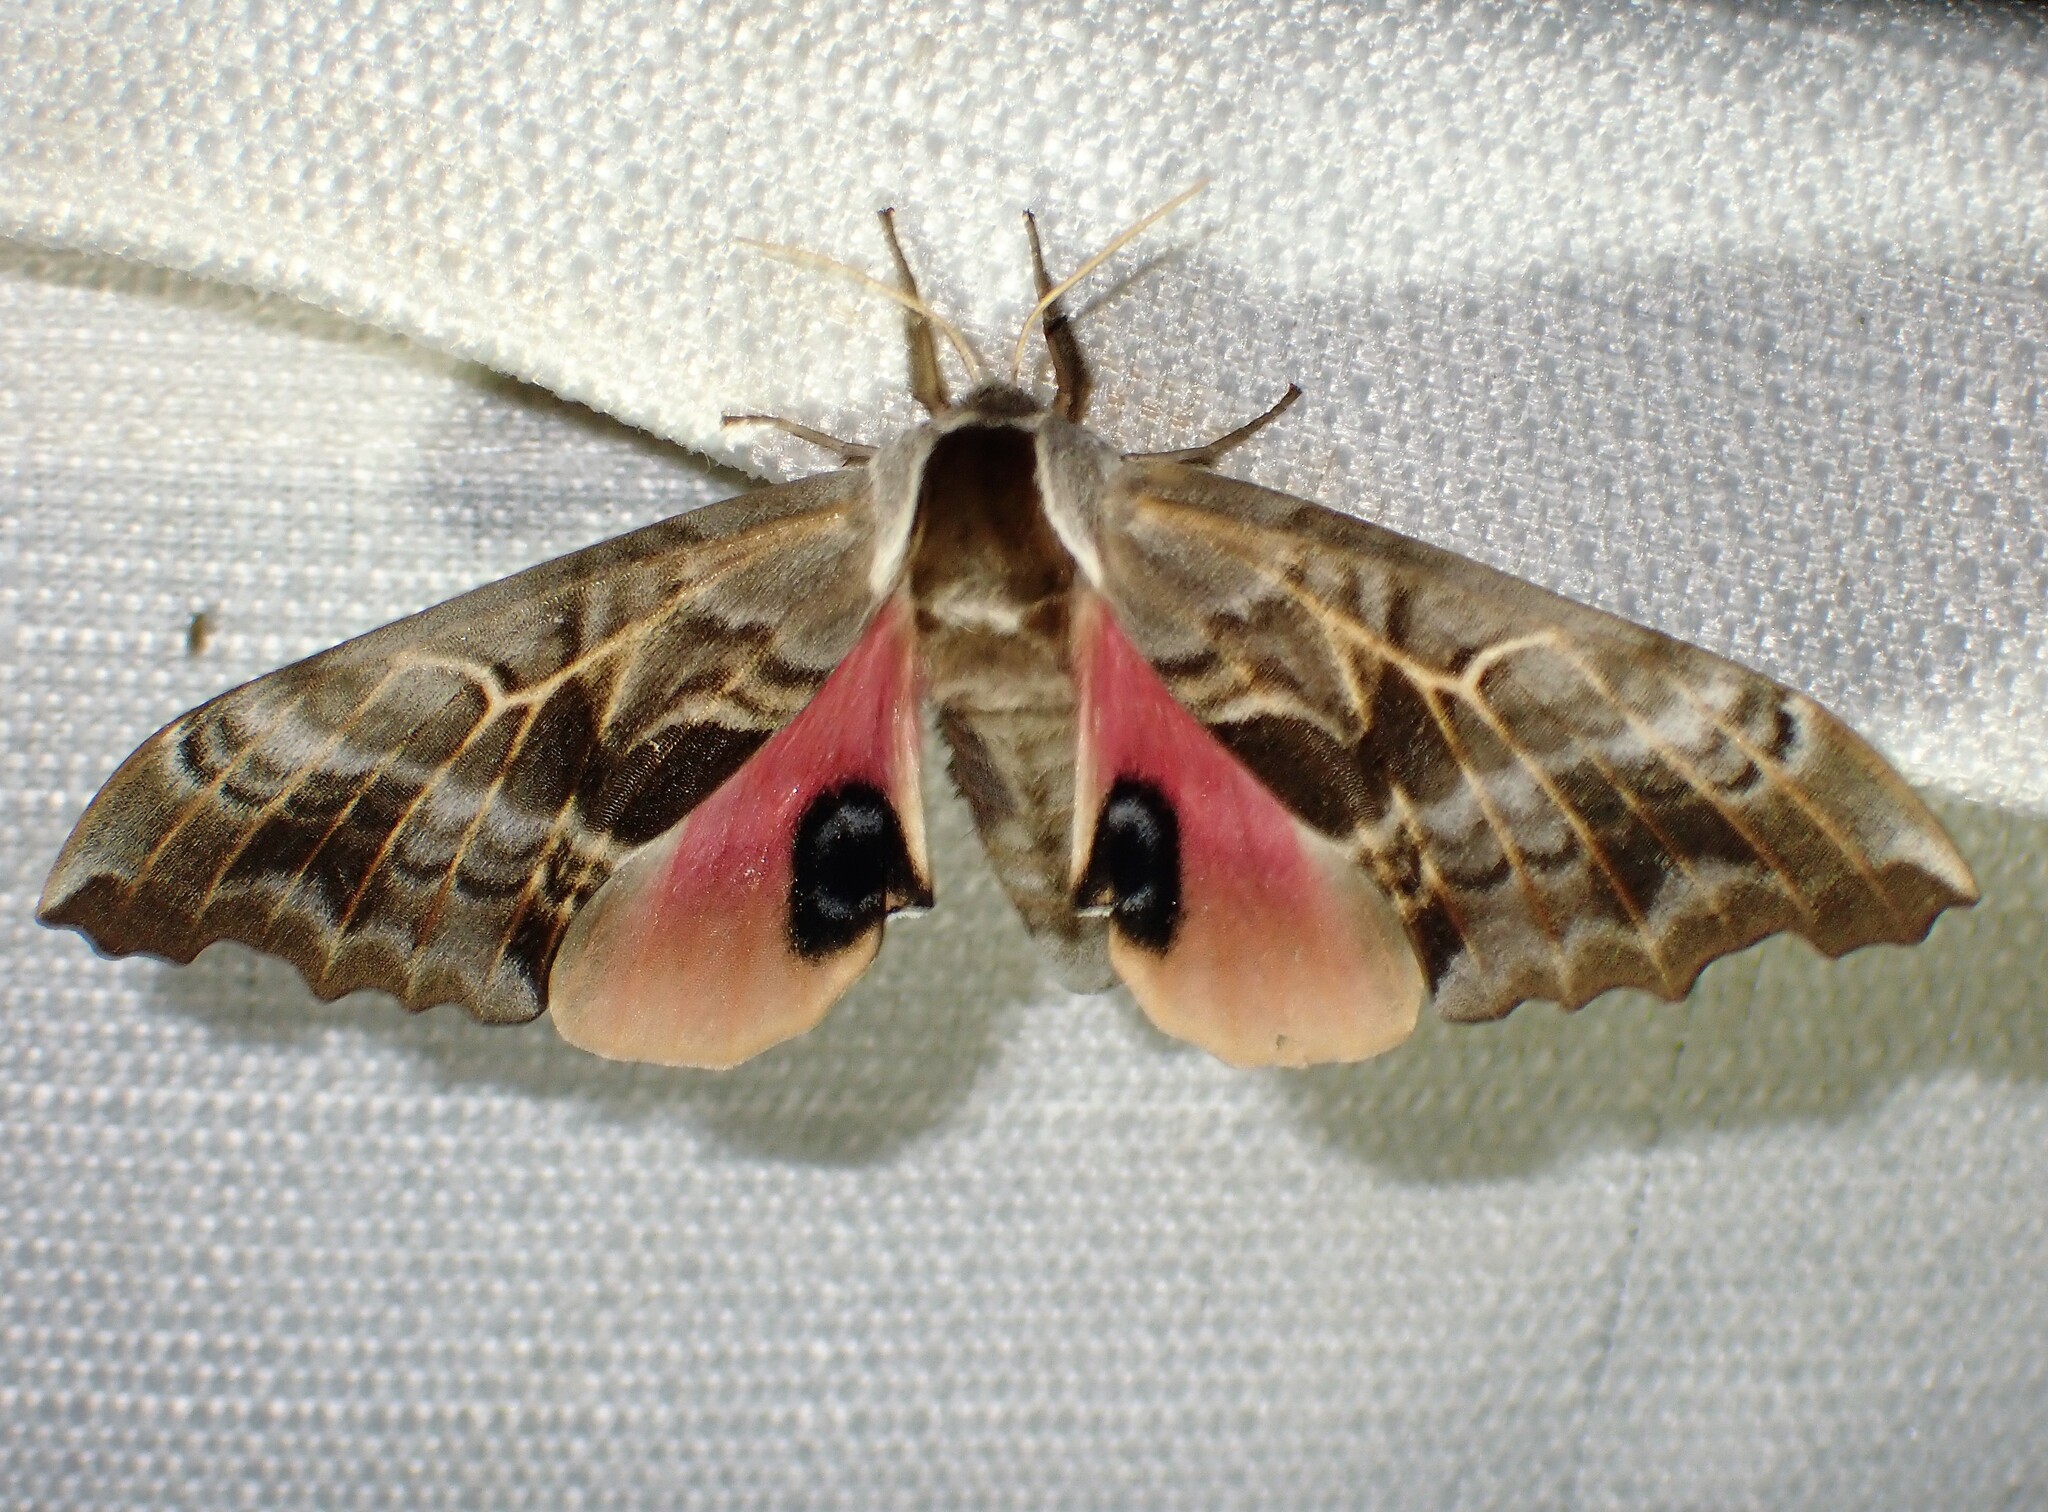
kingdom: Animalia
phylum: Arthropoda
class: Insecta
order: Lepidoptera
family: Sphingidae
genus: Smerinthus
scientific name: Smerinthus cerisyi
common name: Cerisy's sphinx moth
